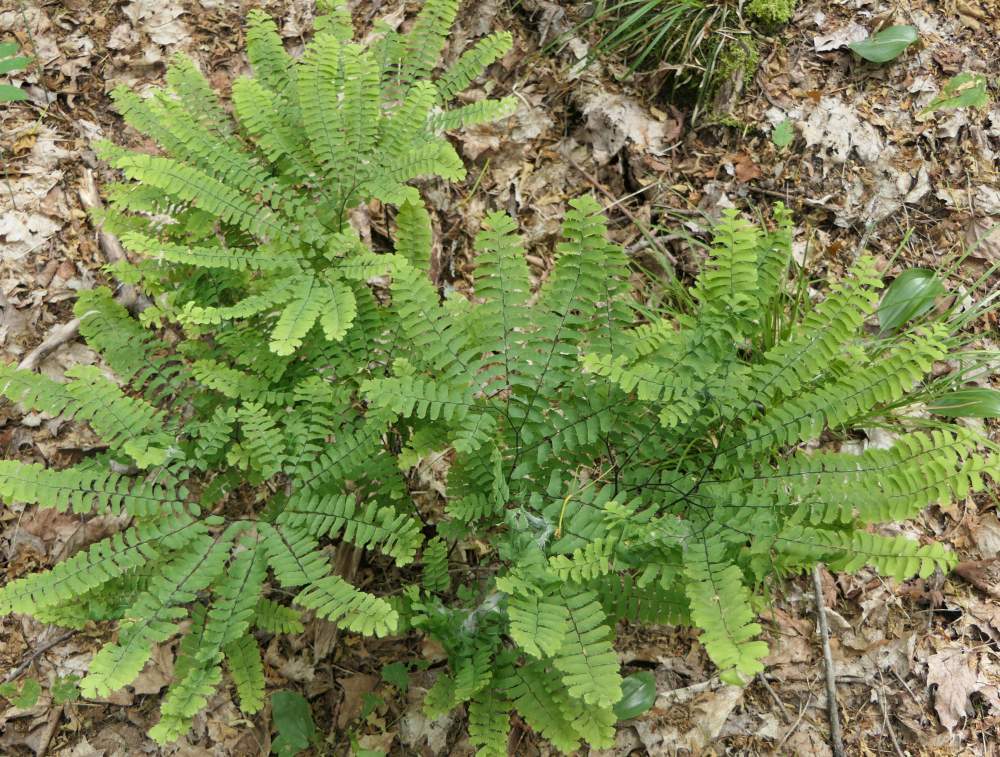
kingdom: Plantae
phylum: Tracheophyta
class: Polypodiopsida
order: Polypodiales
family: Pteridaceae
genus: Adiantum
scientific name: Adiantum pedatum
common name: Five-finger fern
